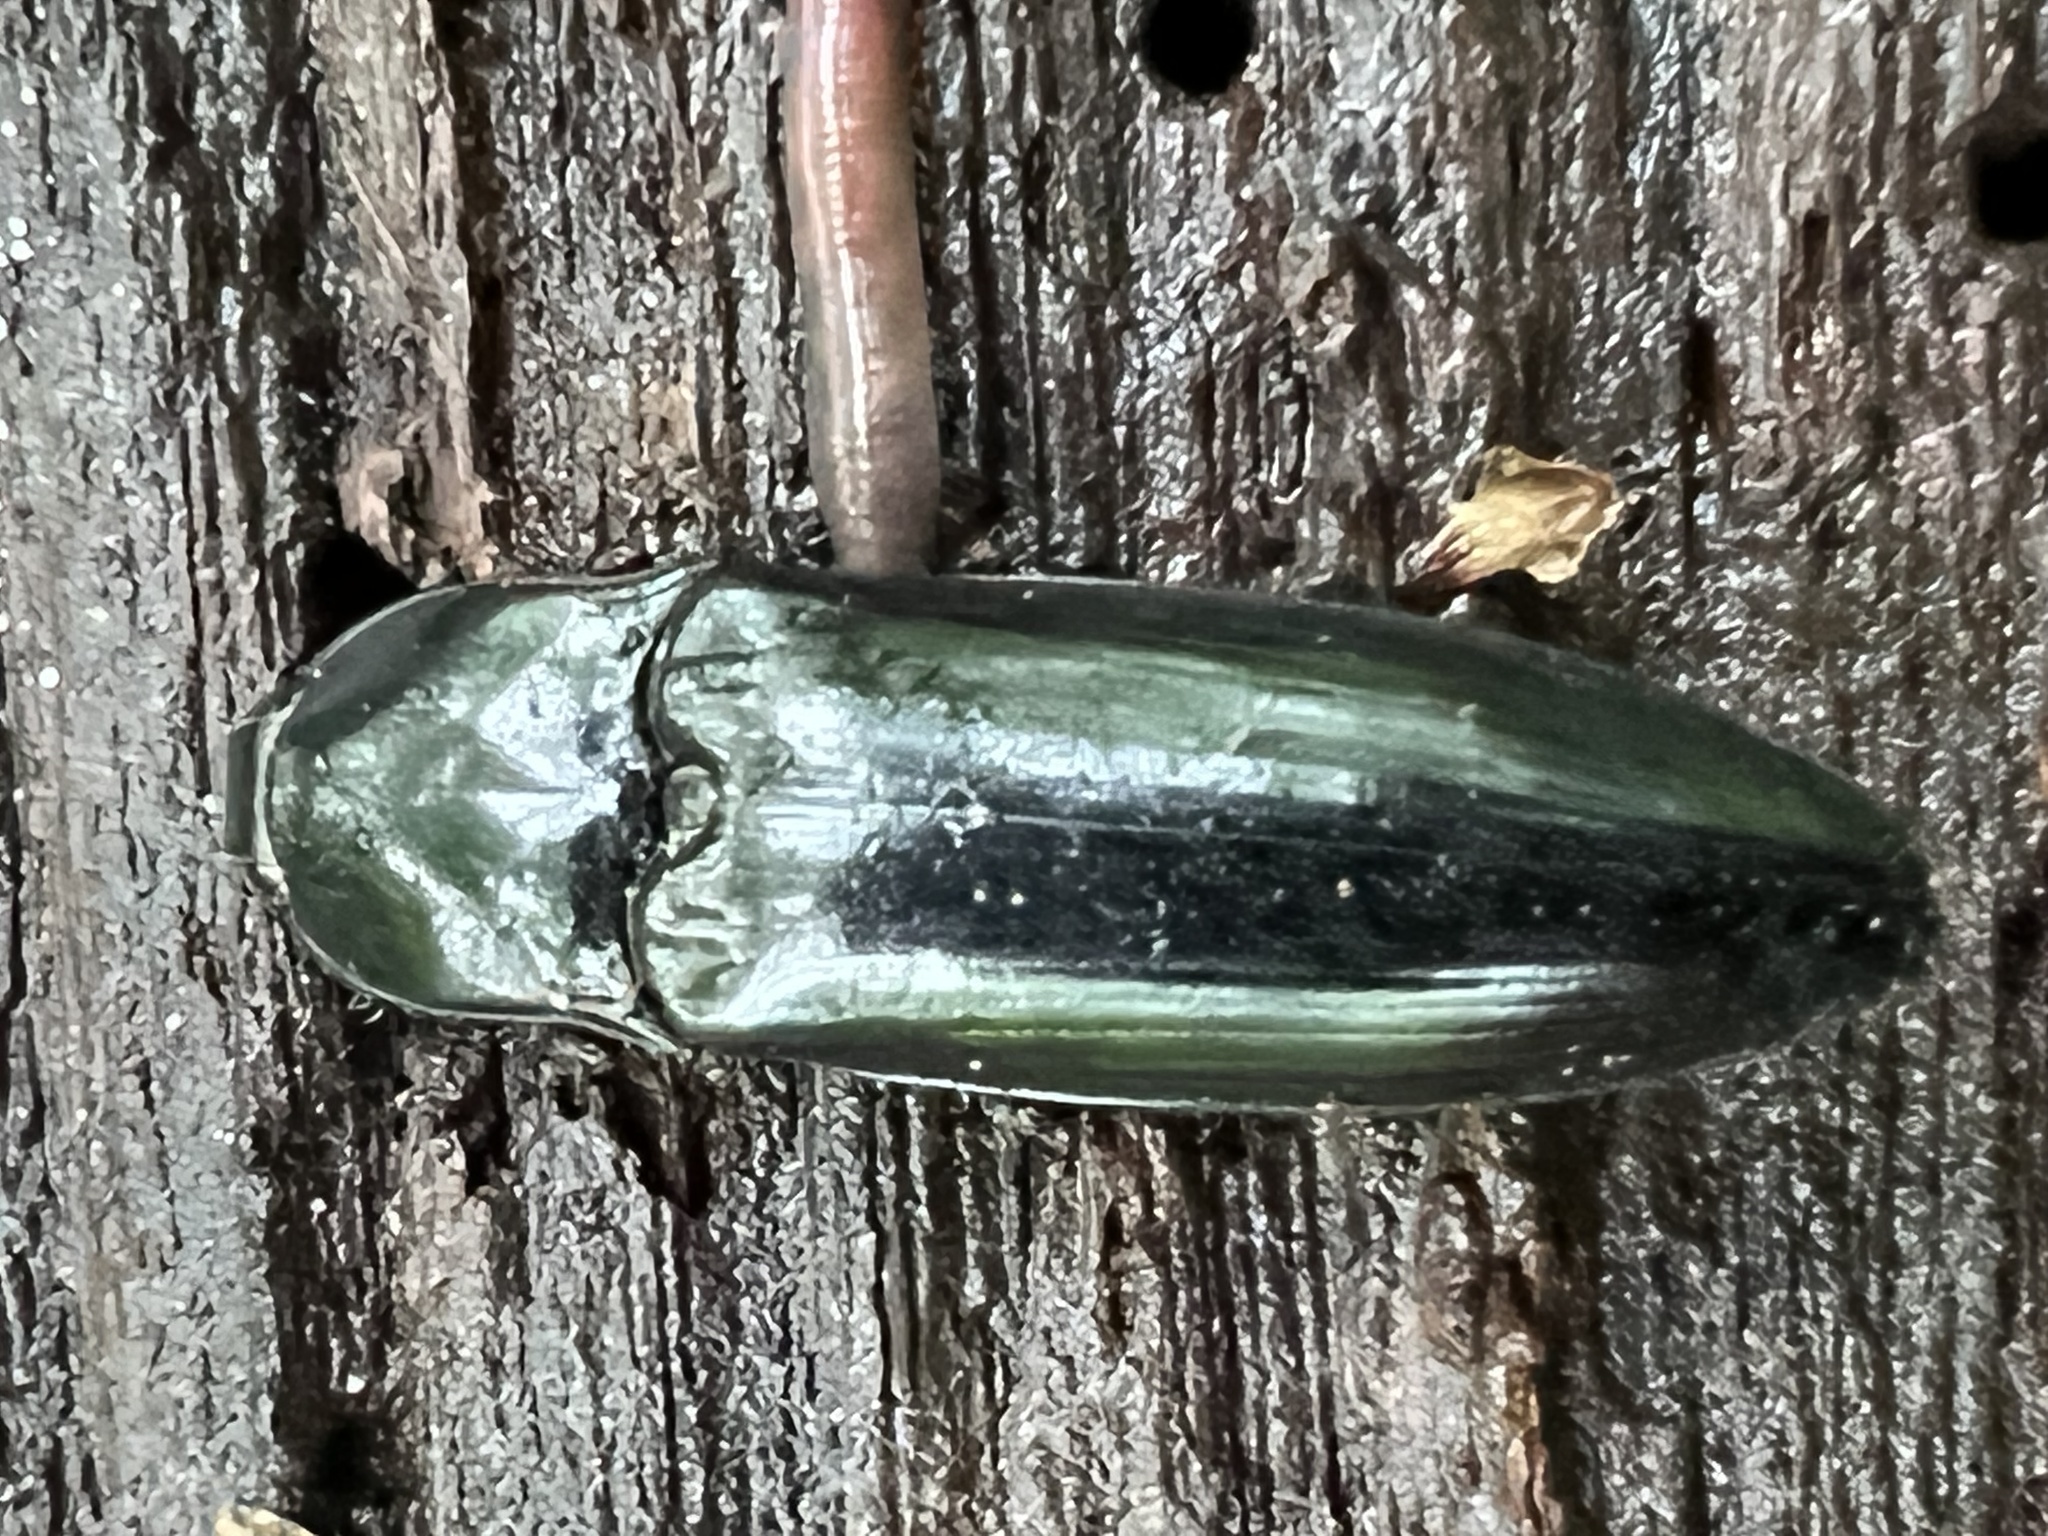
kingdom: Animalia
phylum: Arthropoda
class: Insecta
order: Coleoptera
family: Elateridae
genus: Melanactes
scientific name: Melanactes piceus
